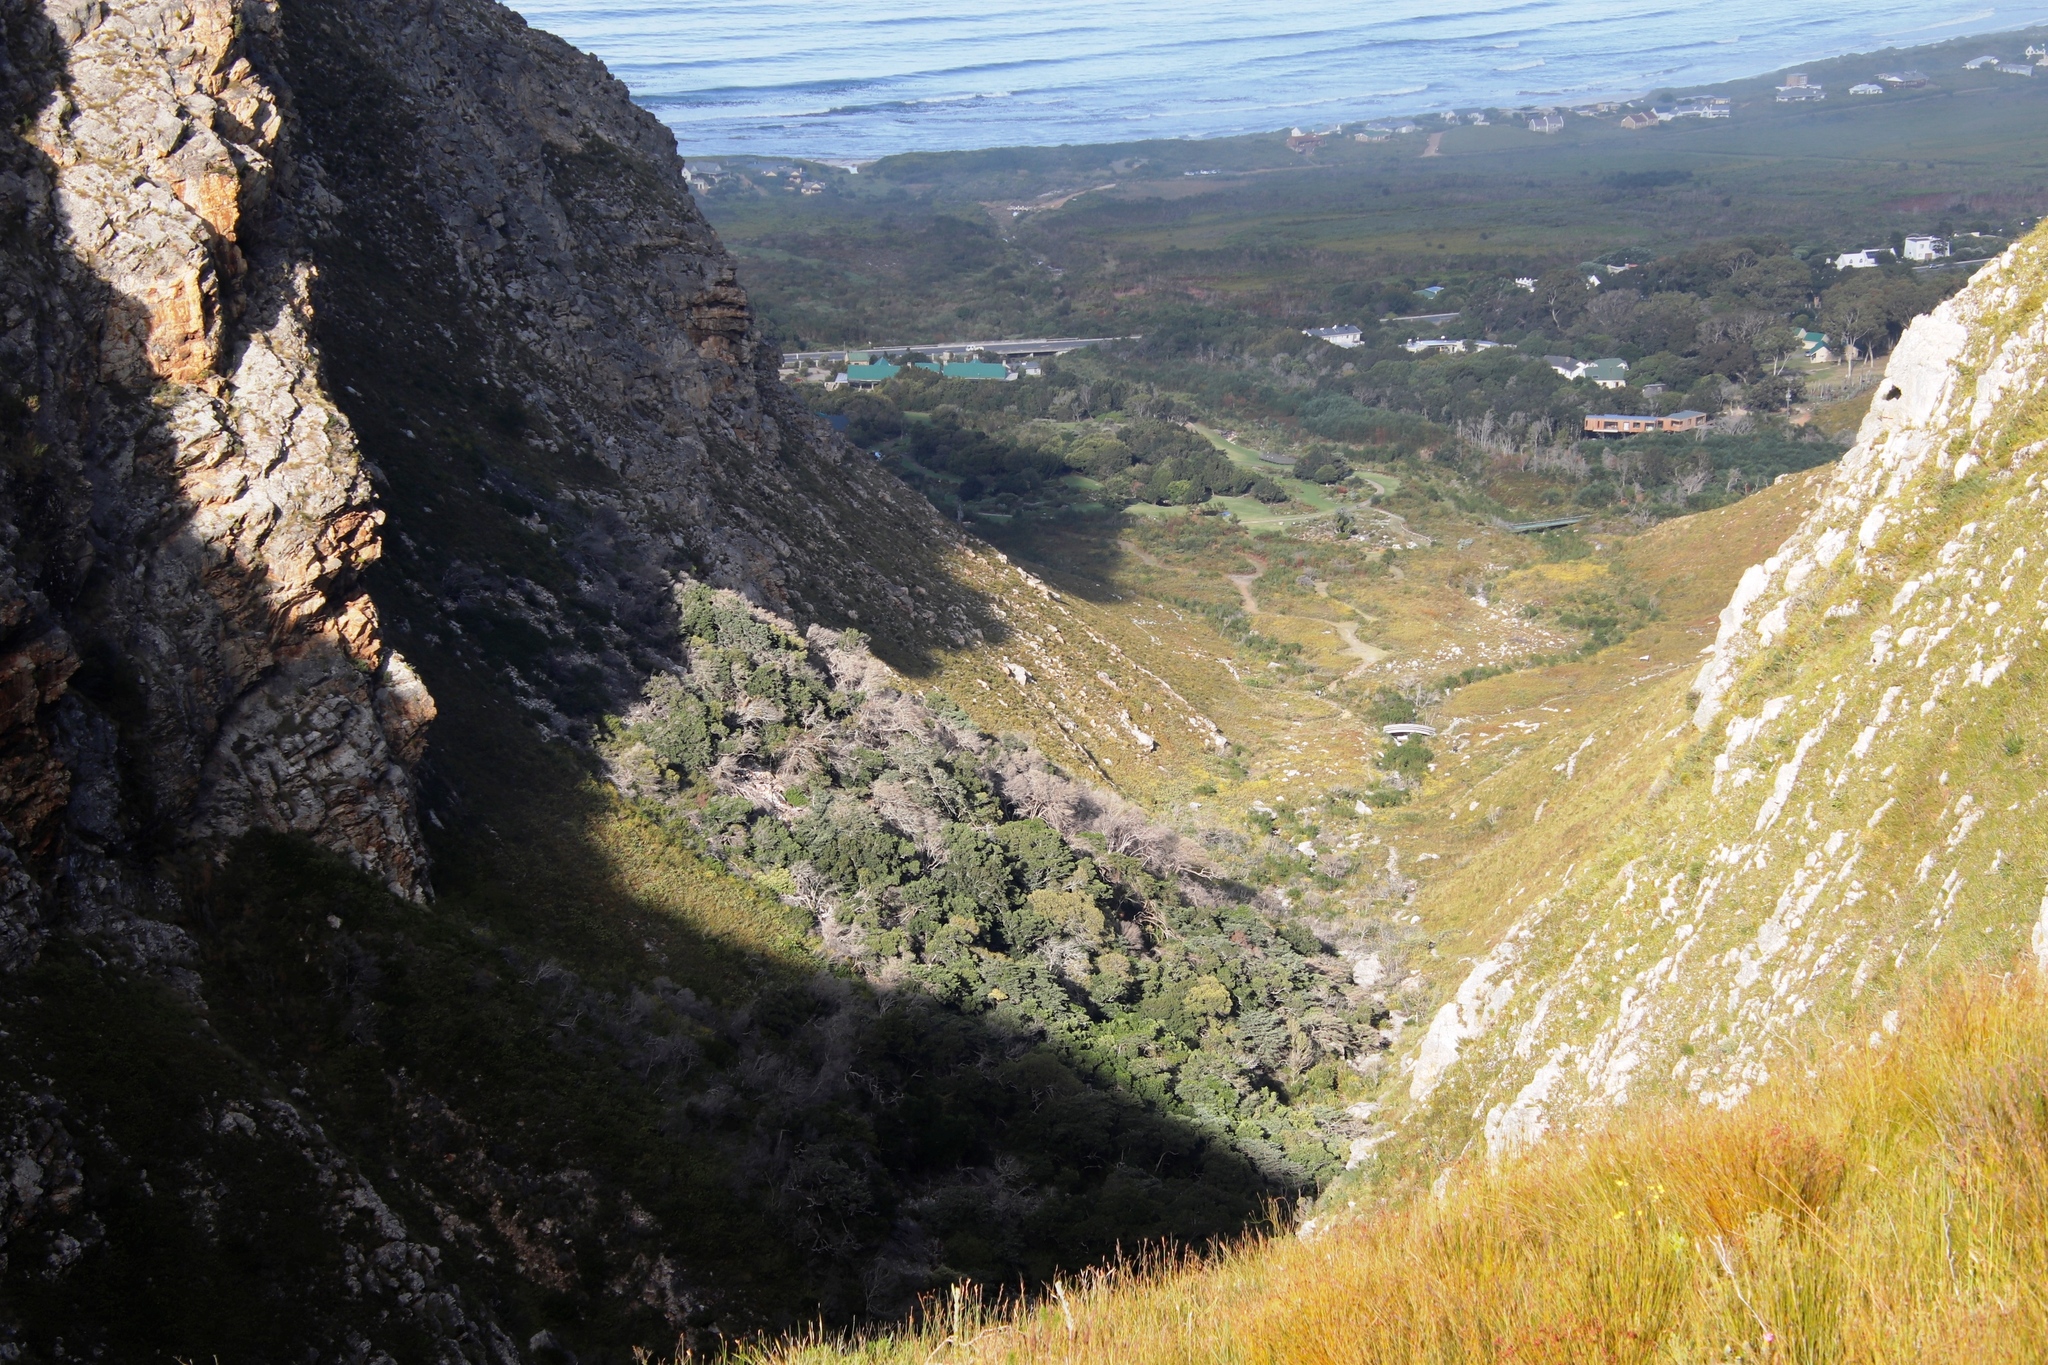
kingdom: Plantae
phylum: Tracheophyta
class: Pinopsida
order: Pinales
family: Podocarpaceae
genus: Podocarpus
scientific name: Podocarpus latifolius
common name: True yellowwood
